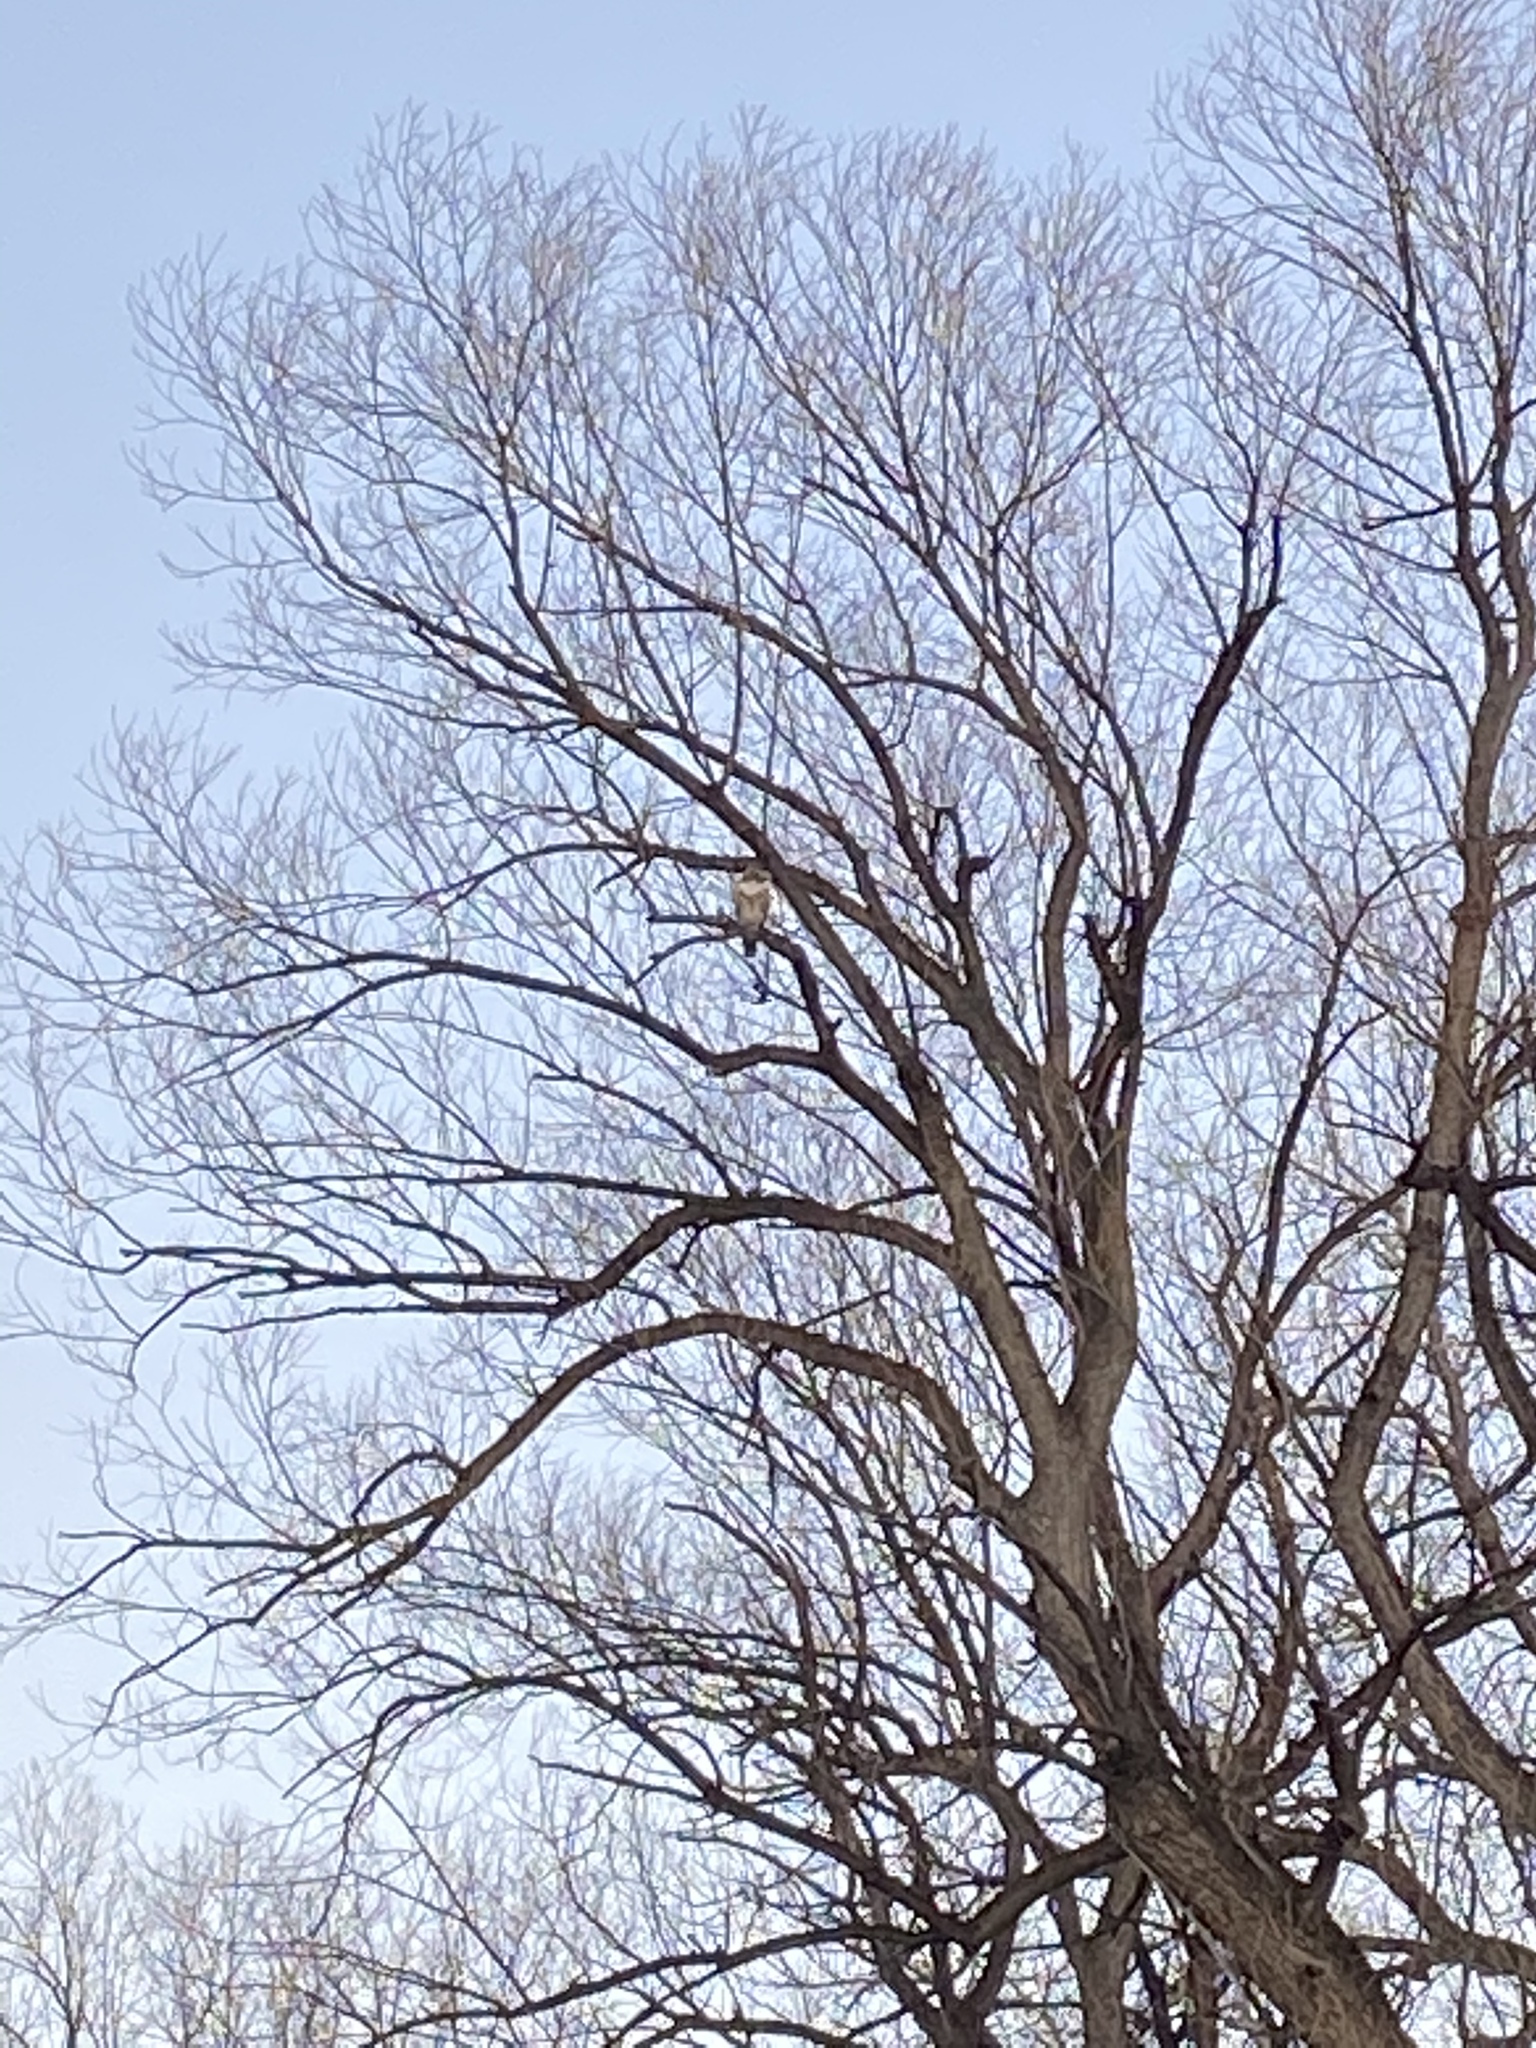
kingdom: Animalia
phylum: Chordata
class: Aves
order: Accipitriformes
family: Accipitridae
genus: Buteo
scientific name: Buteo jamaicensis
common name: Red-tailed hawk
